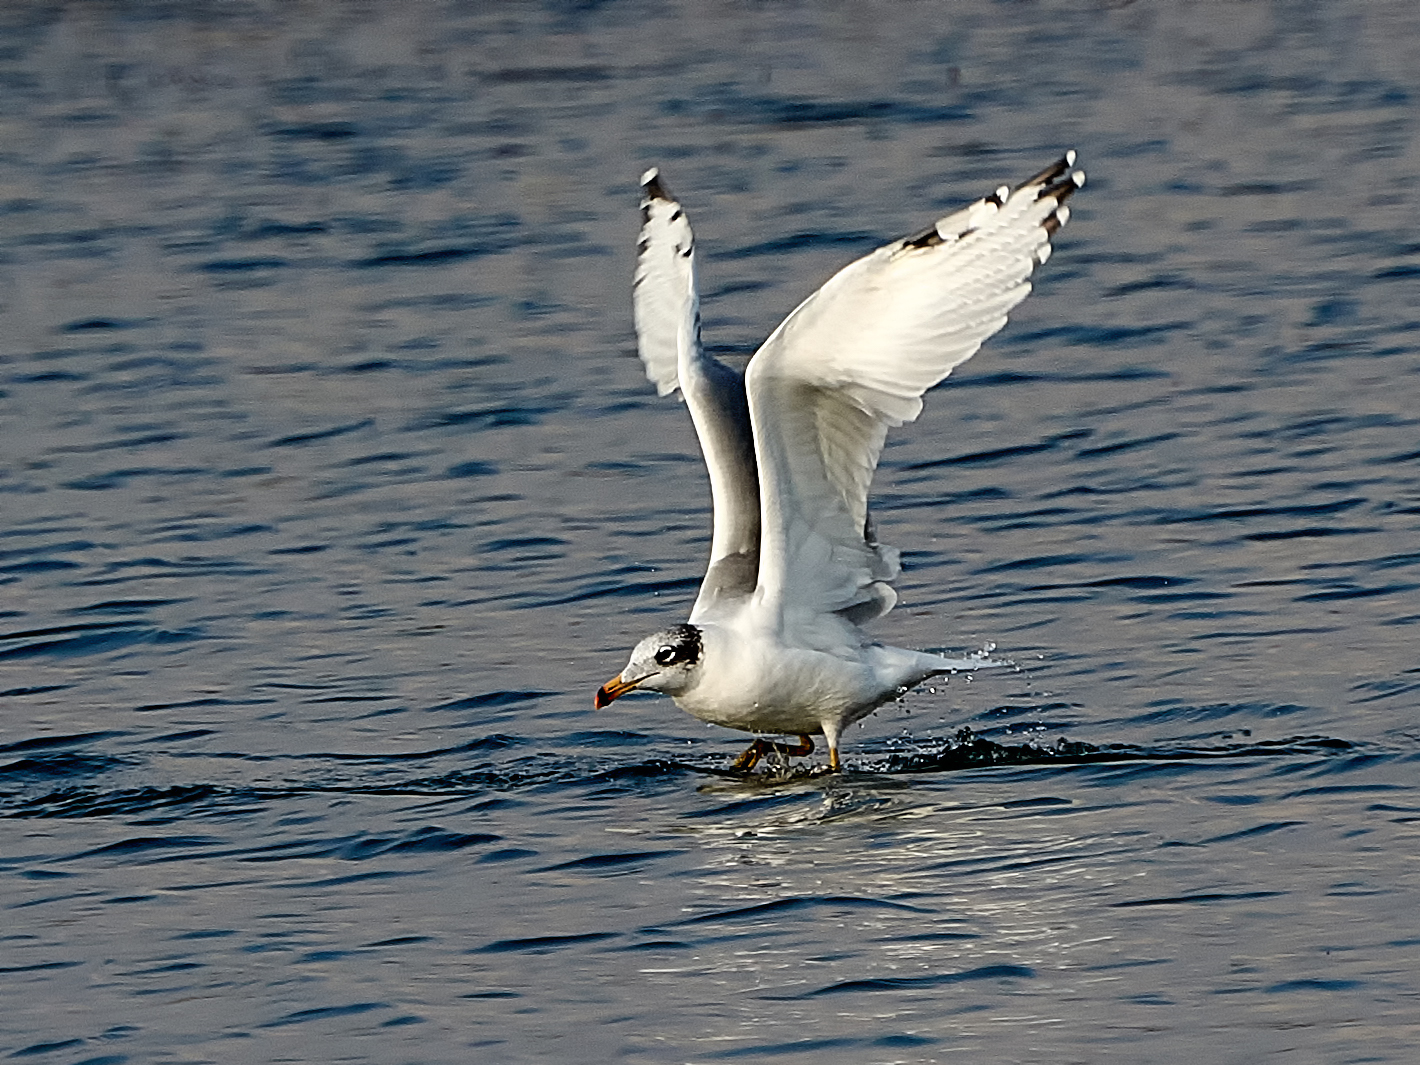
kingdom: Animalia
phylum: Chordata
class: Aves
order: Charadriiformes
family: Laridae
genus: Ichthyaetus
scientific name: Ichthyaetus ichthyaetus
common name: Pallas's gull
